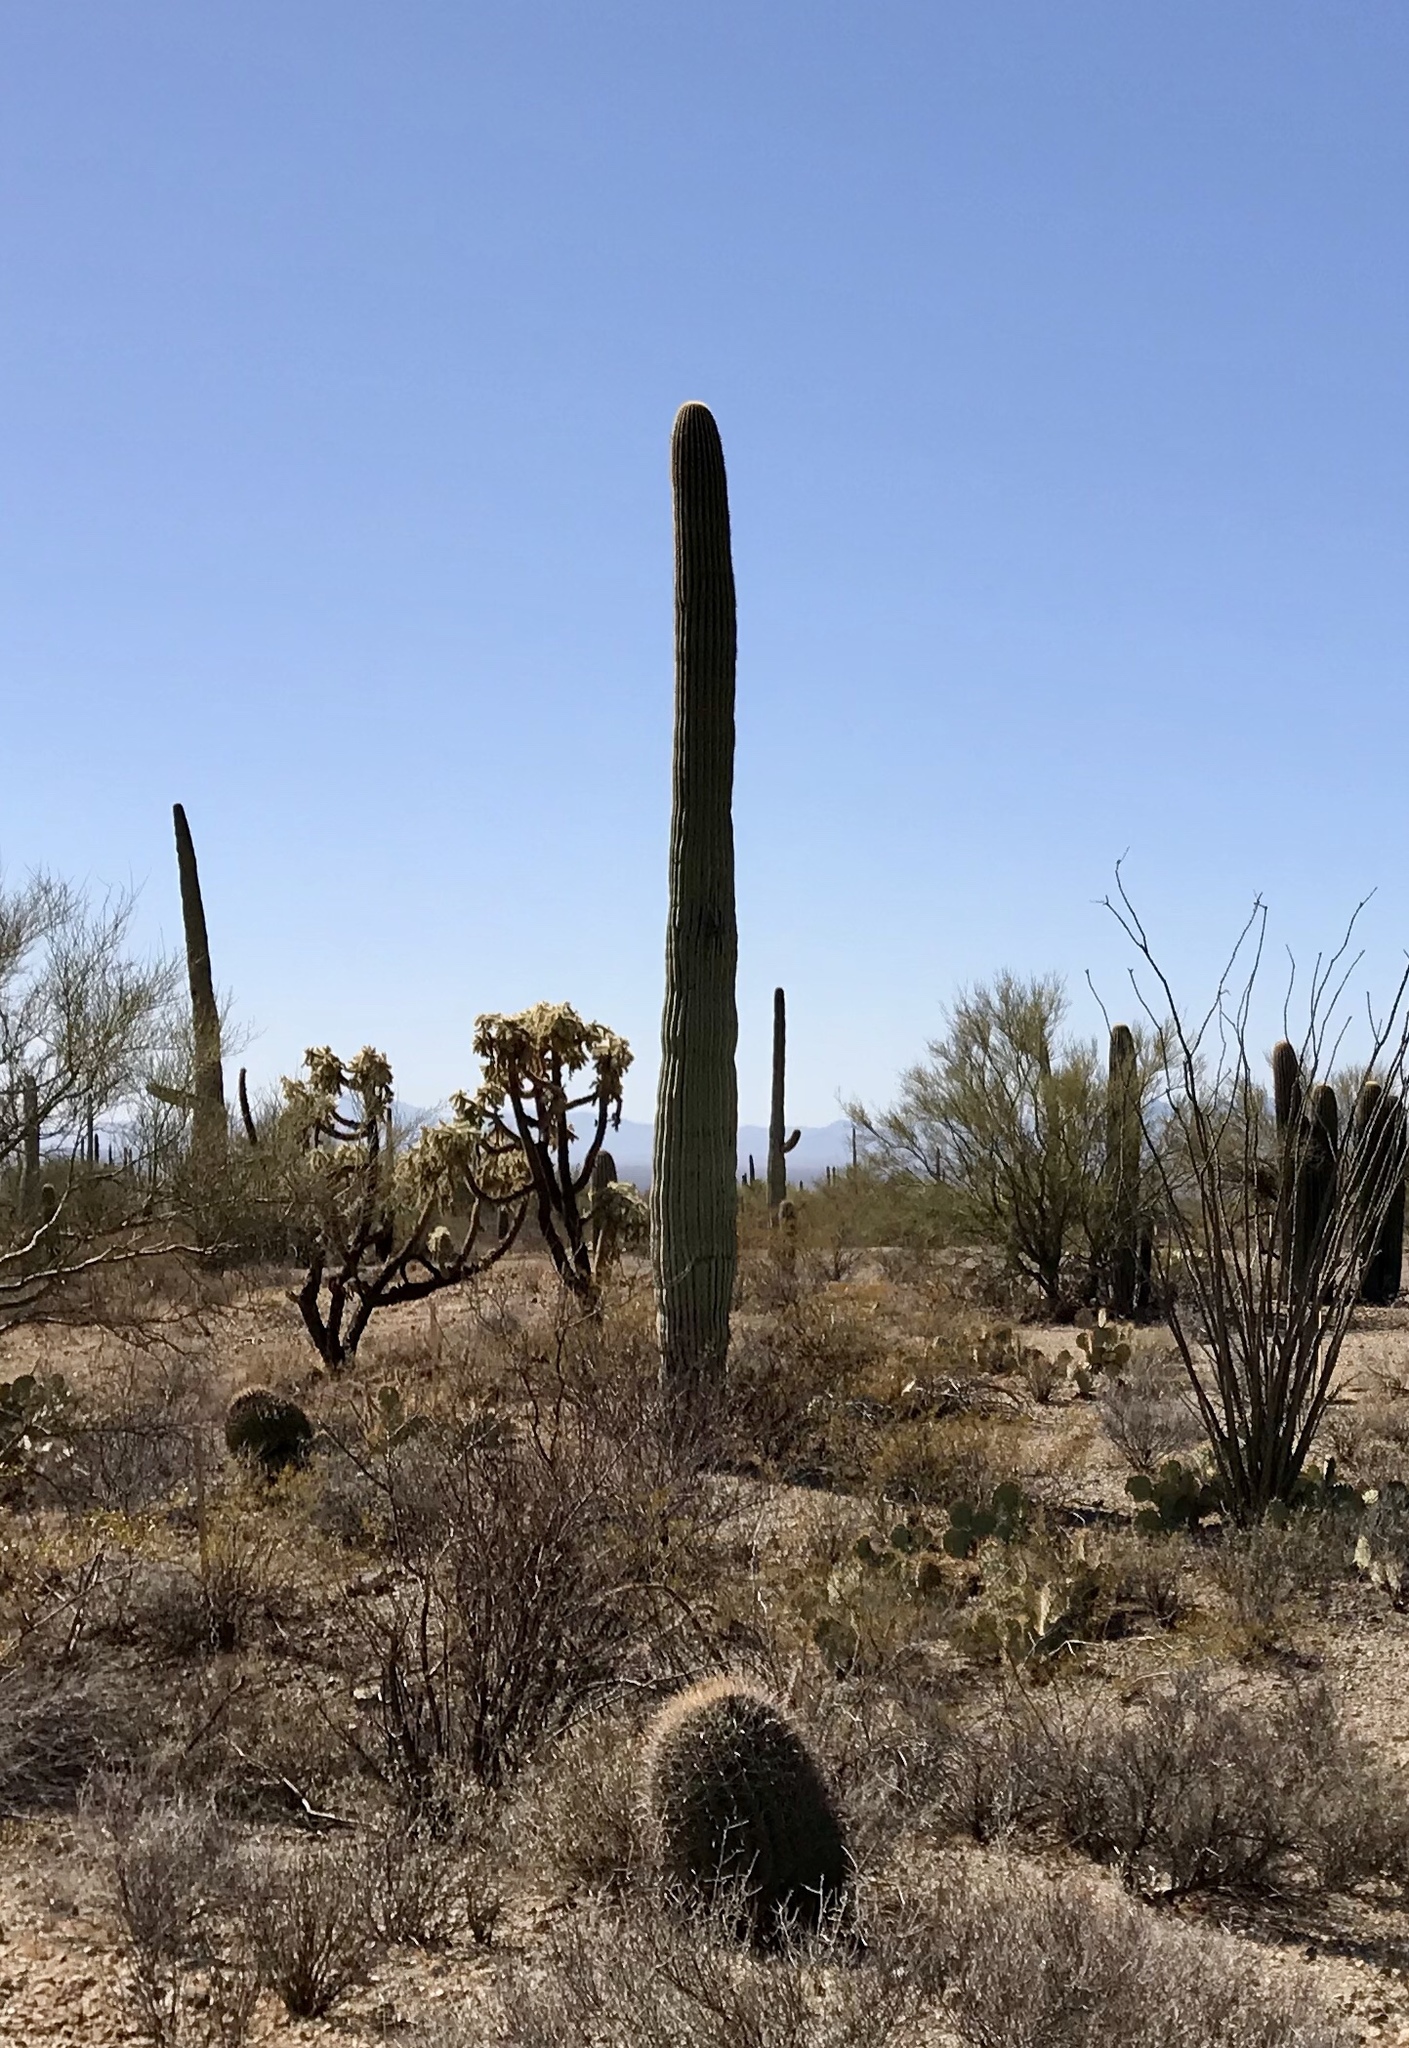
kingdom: Plantae
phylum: Tracheophyta
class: Magnoliopsida
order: Caryophyllales
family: Cactaceae
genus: Carnegiea
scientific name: Carnegiea gigantea
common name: Saguaro
